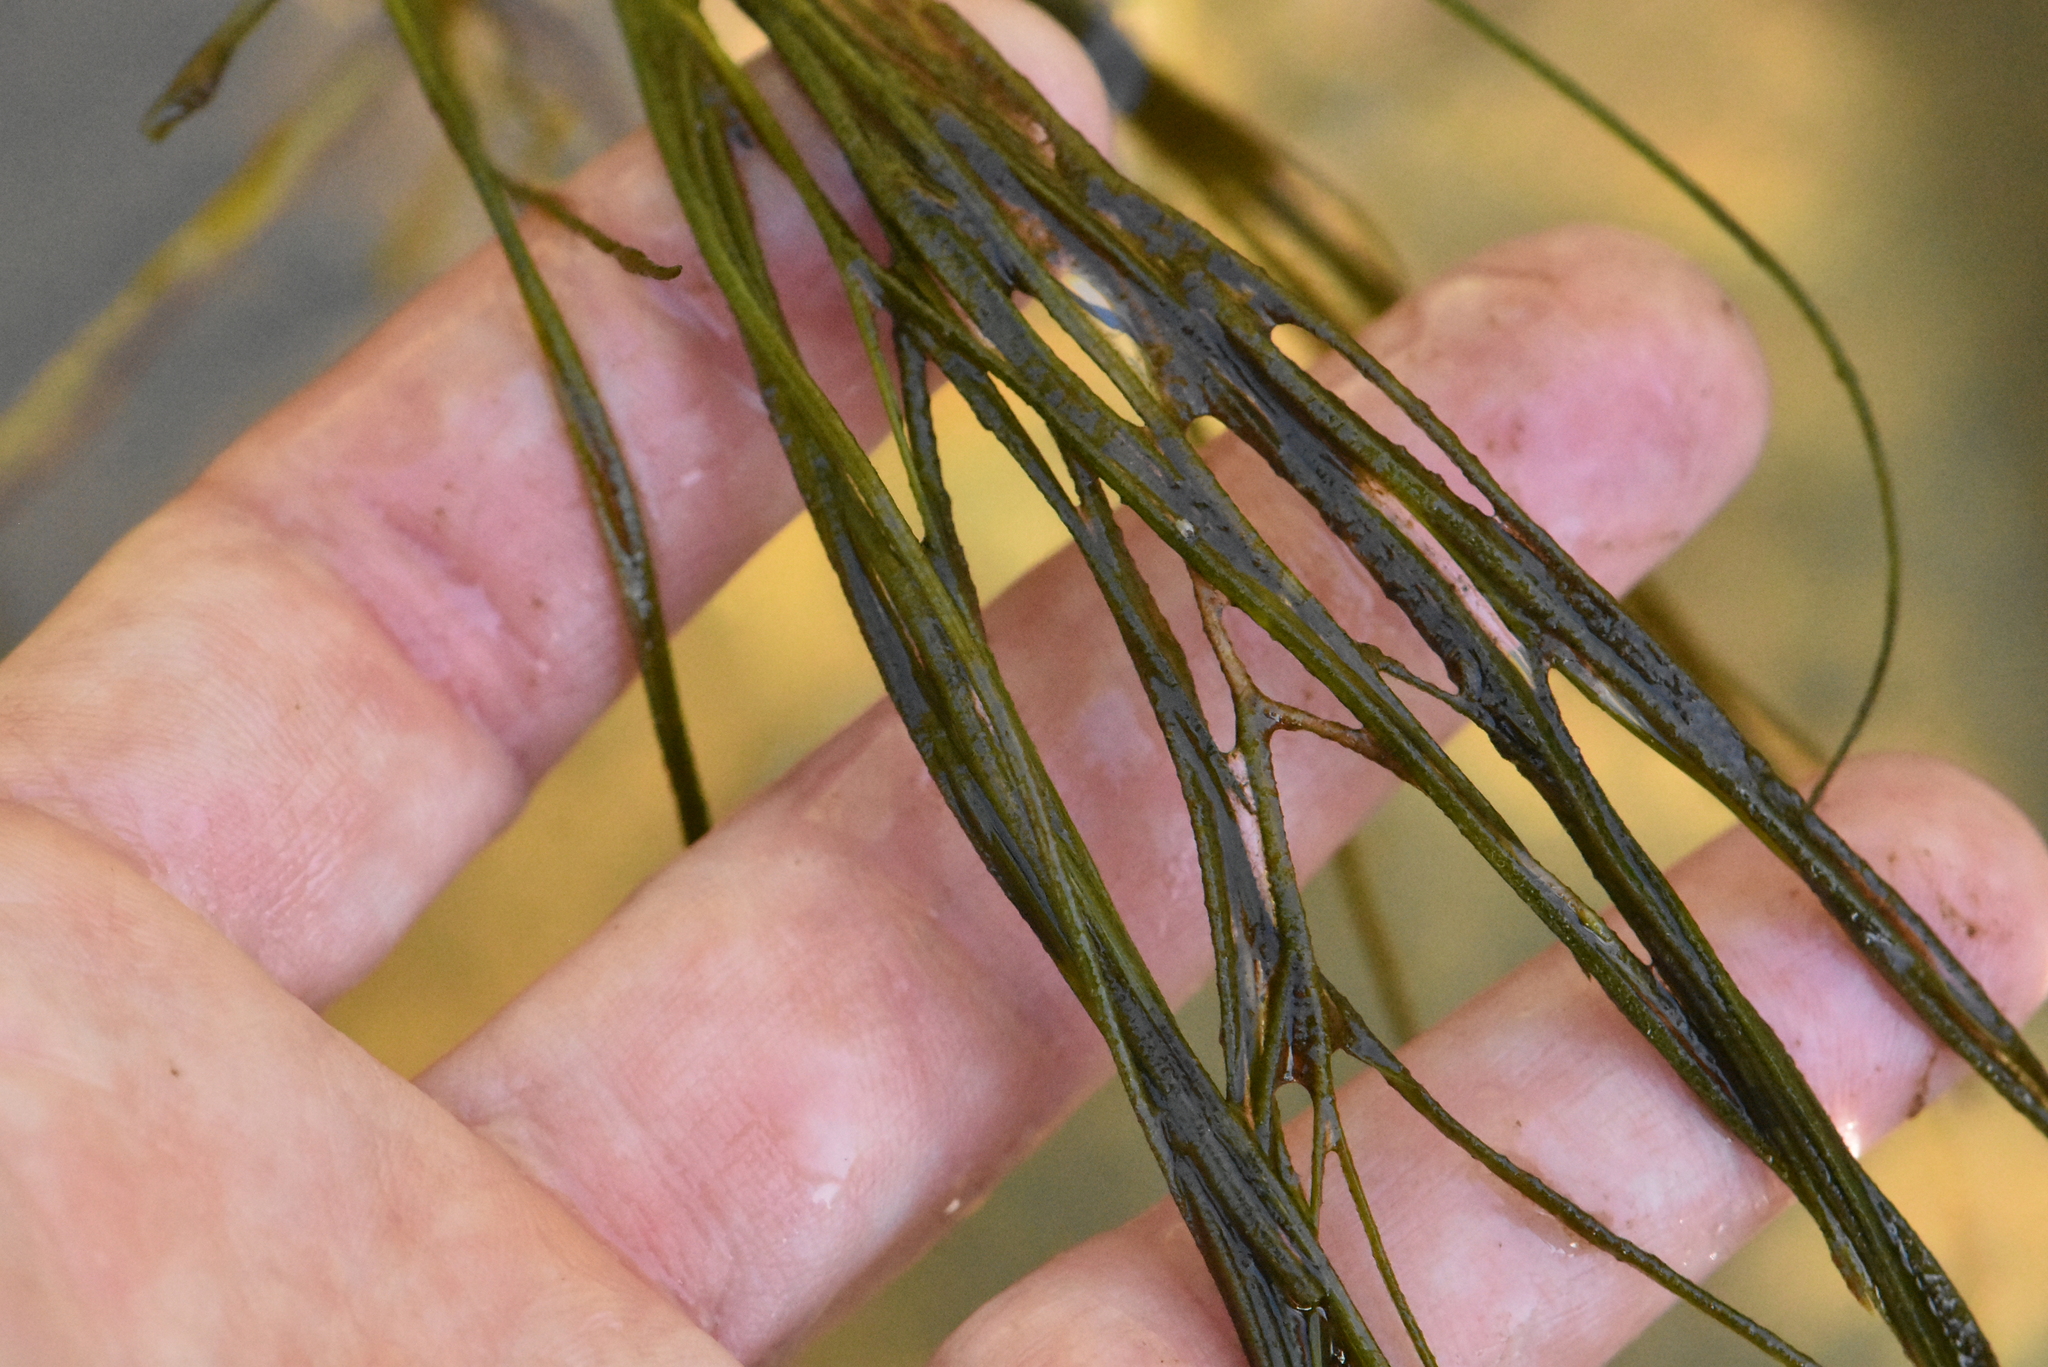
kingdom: Plantae
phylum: Tracheophyta
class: Liliopsida
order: Alismatales
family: Potamogetonaceae
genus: Stuckenia
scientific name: Stuckenia pectinata
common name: Sago pondweed
